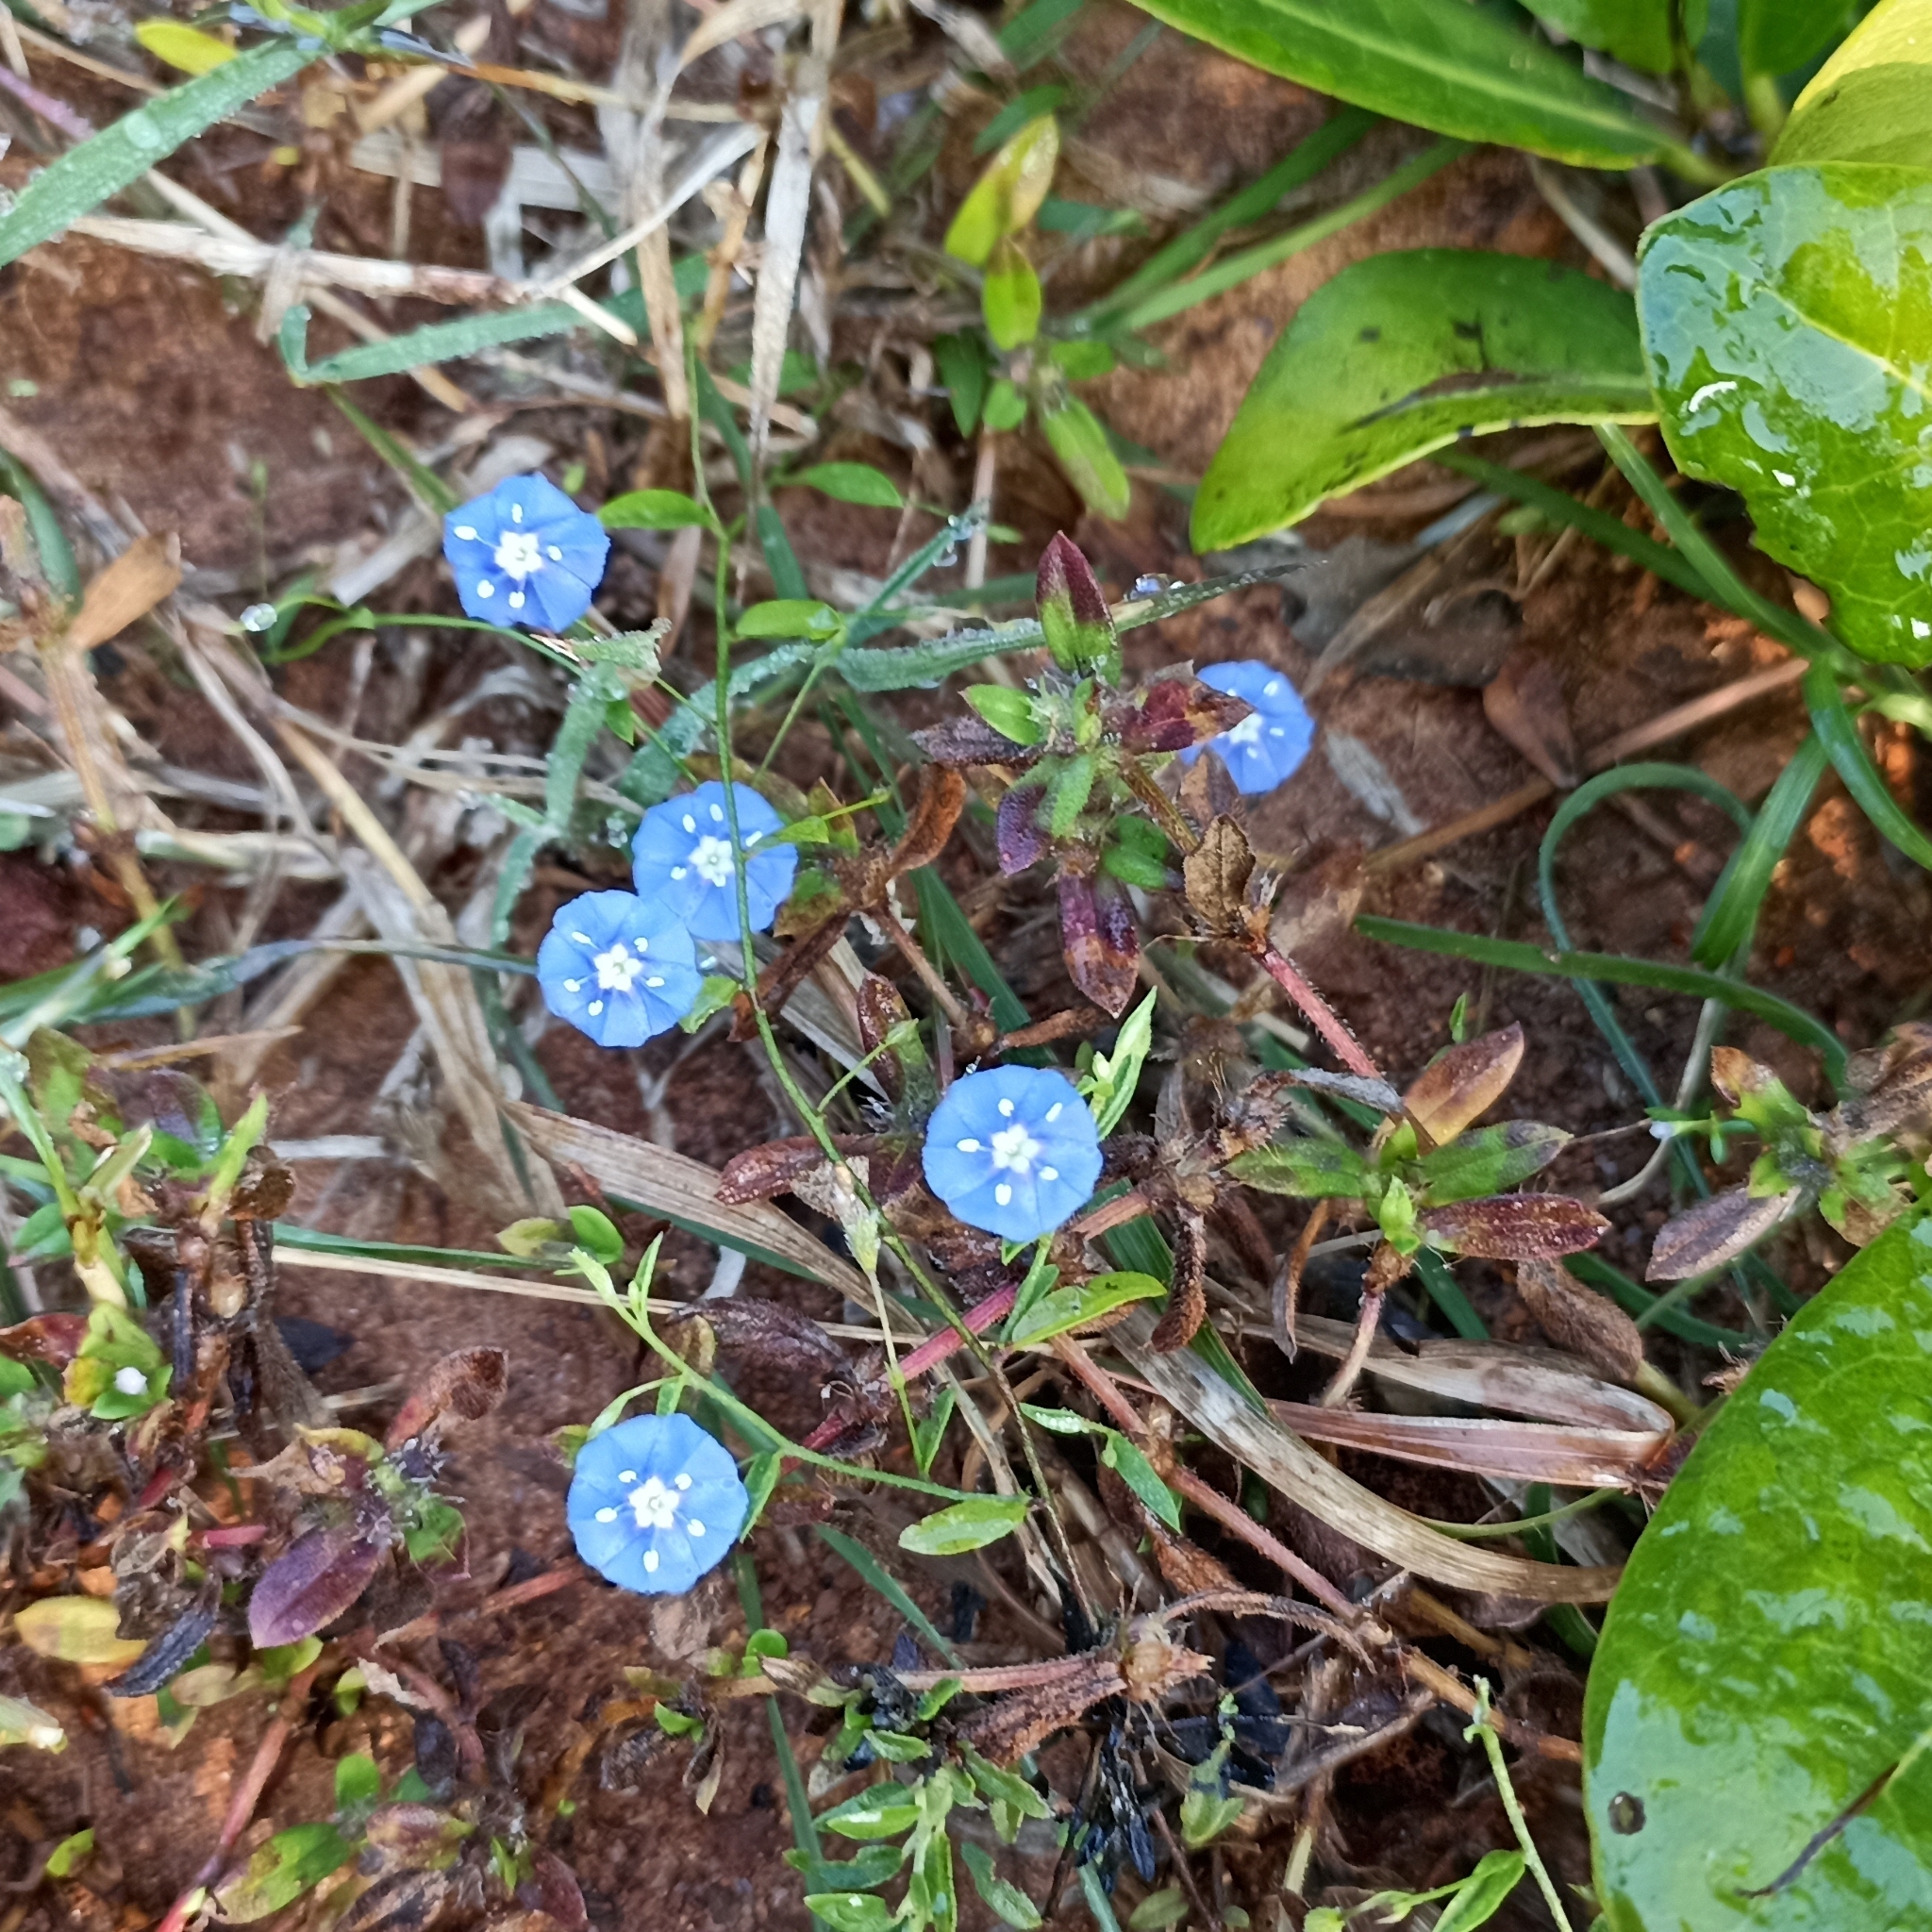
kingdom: Plantae
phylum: Tracheophyta
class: Magnoliopsida
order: Solanales
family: Convolvulaceae
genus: Evolvulus
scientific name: Evolvulus alsinoides
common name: Slender dwarf morning-glory
